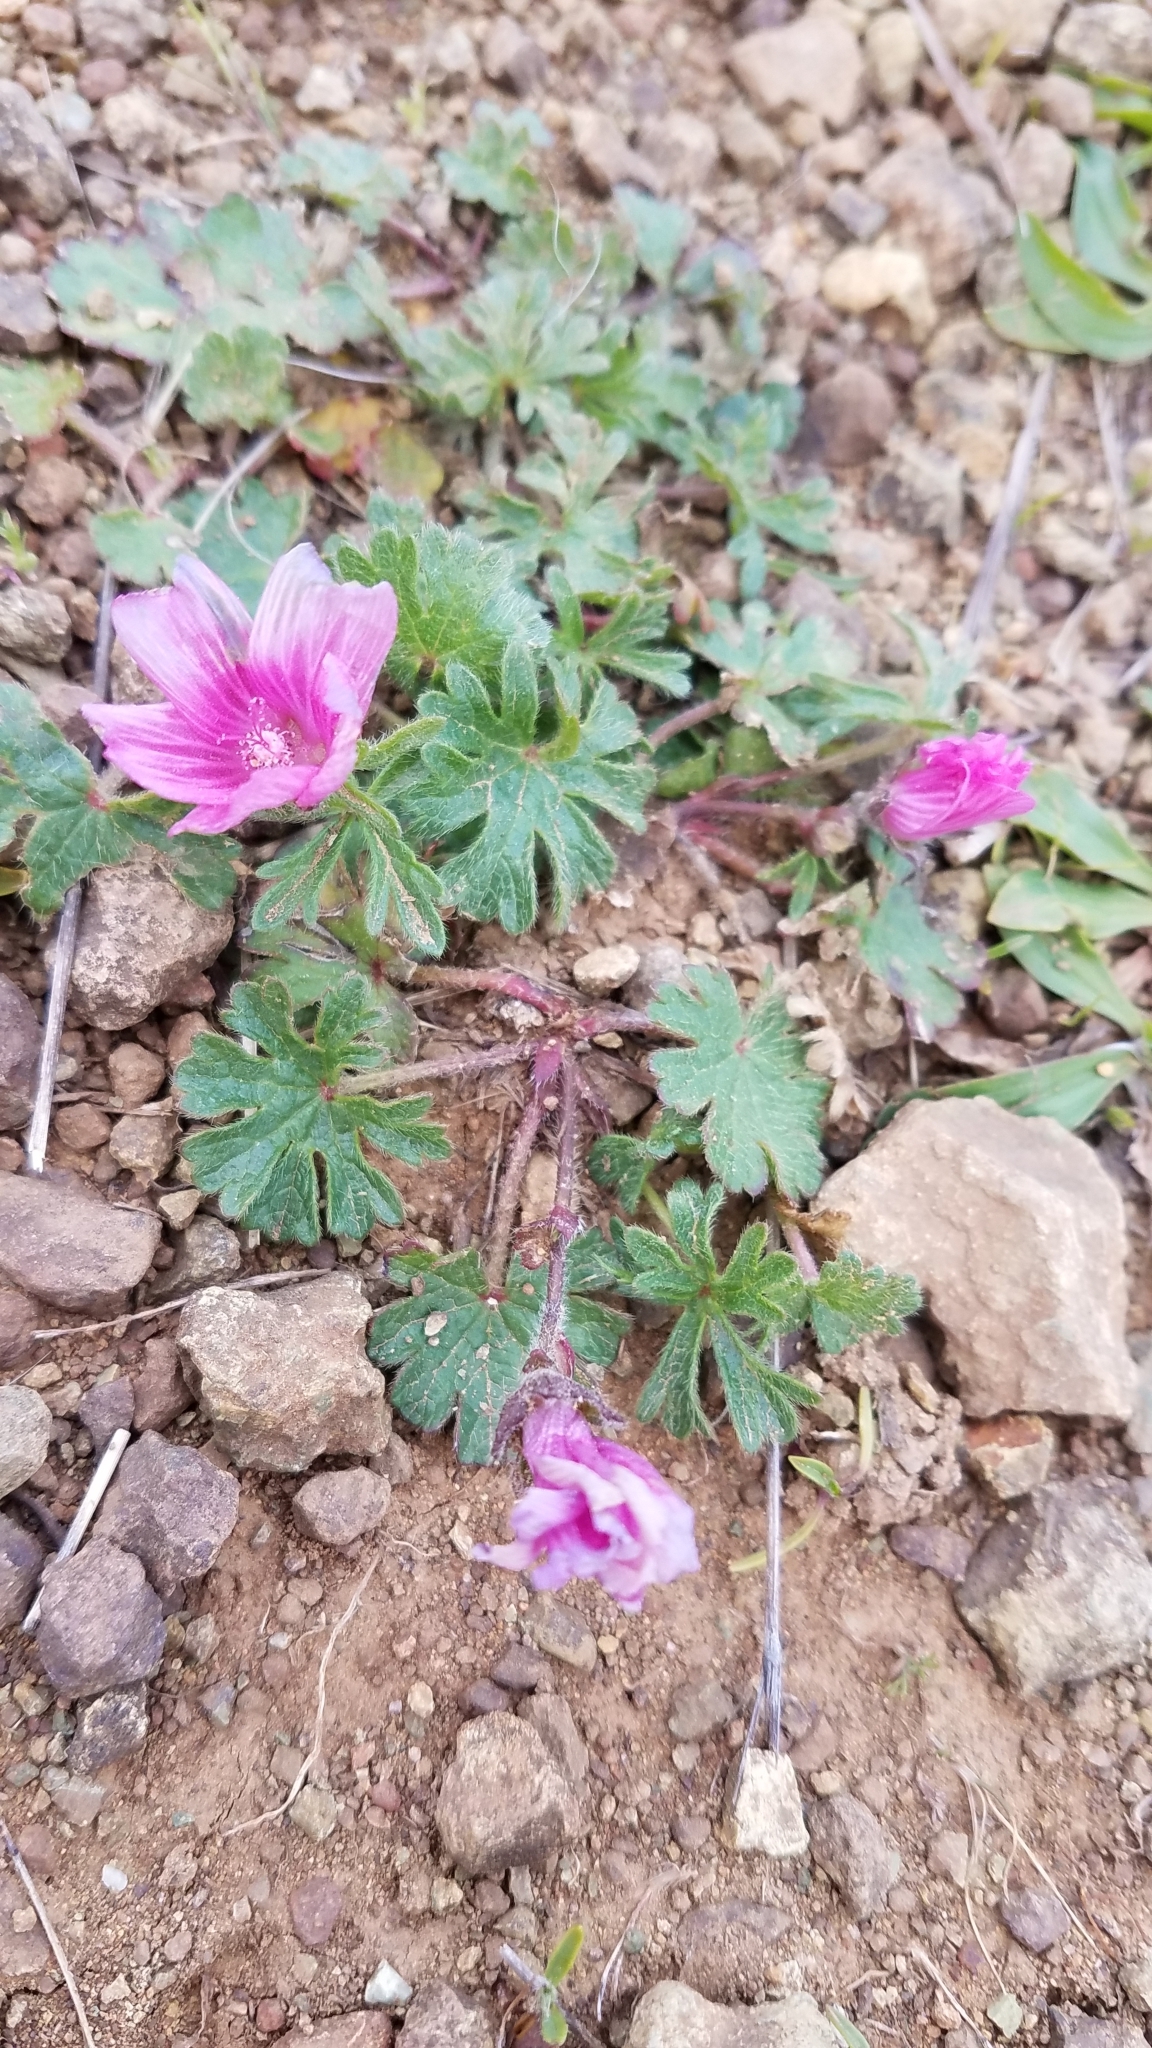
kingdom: Plantae
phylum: Tracheophyta
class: Magnoliopsida
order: Malvales
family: Malvaceae
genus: Sidalcea
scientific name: Sidalcea malviflora
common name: Greek mallow
